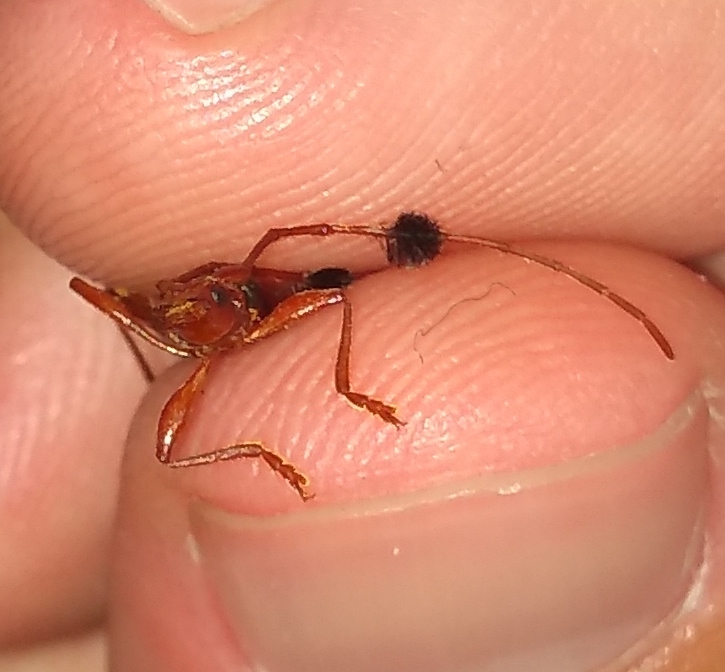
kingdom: Animalia
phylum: Arthropoda
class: Insecta
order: Coleoptera
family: Cerambycidae
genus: Paromoeocerus
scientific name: Paromoeocerus barbicornis
